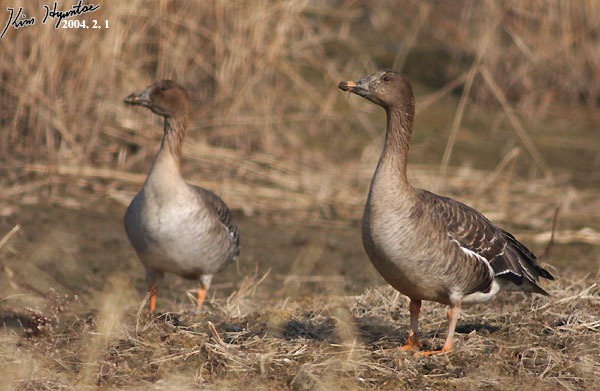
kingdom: Animalia
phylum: Chordata
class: Aves
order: Anseriformes
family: Anatidae
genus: Anser
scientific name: Anser fabalis
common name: Bean goose
